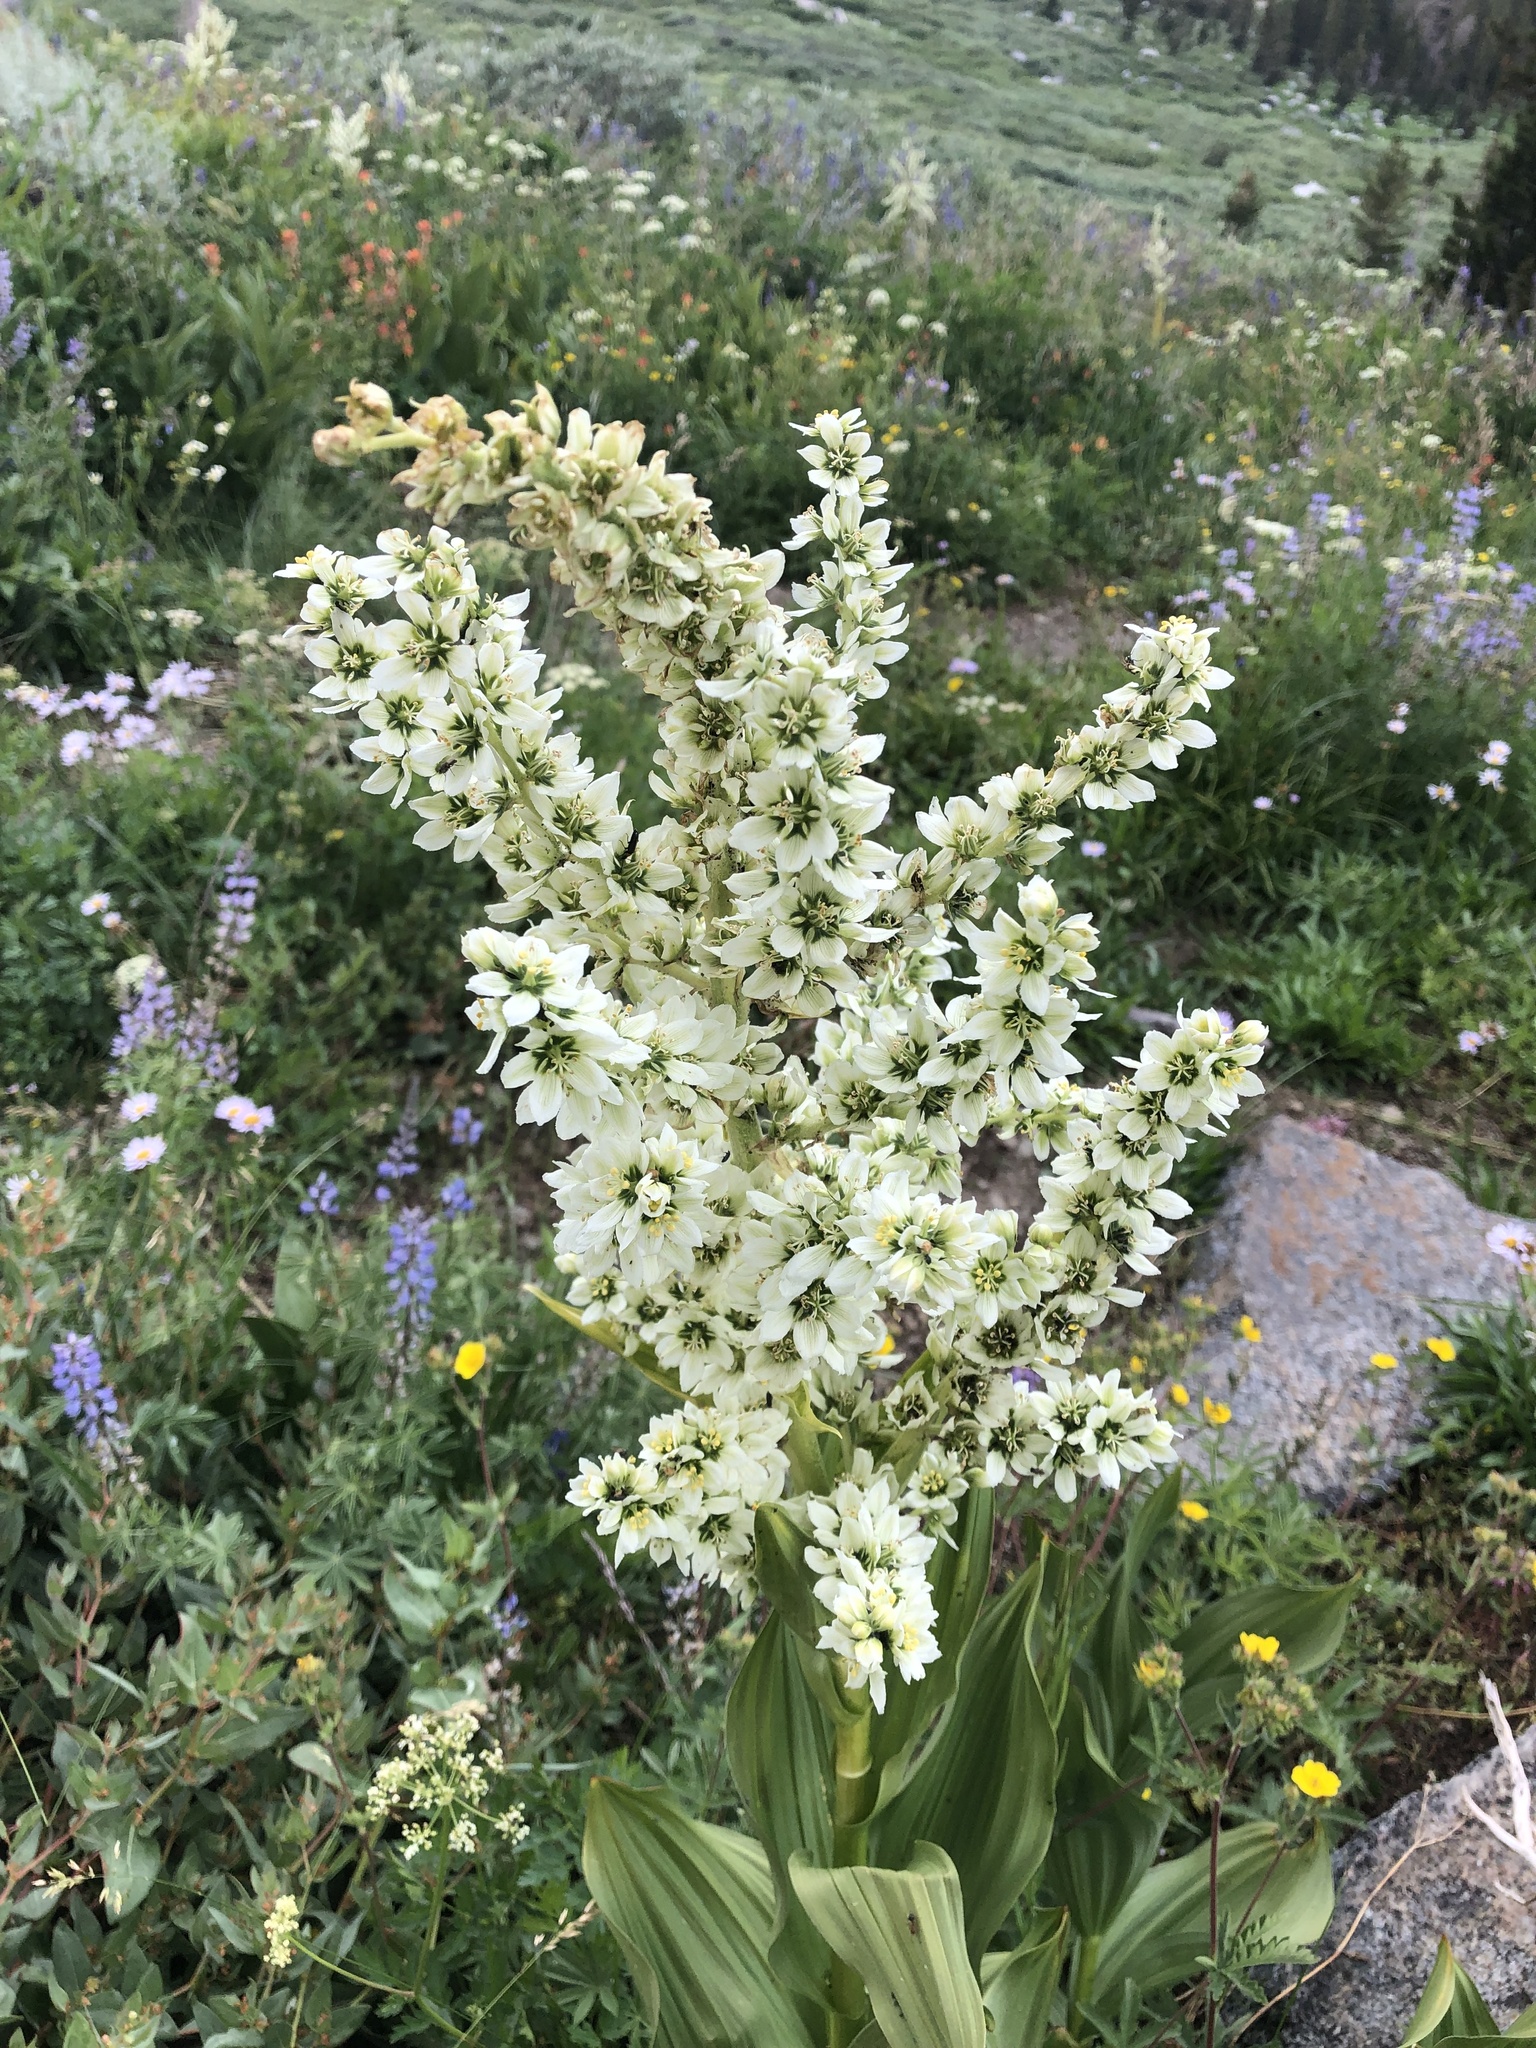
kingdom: Plantae
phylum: Tracheophyta
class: Liliopsida
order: Liliales
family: Melanthiaceae
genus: Veratrum
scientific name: Veratrum californicum
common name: California veratrum
